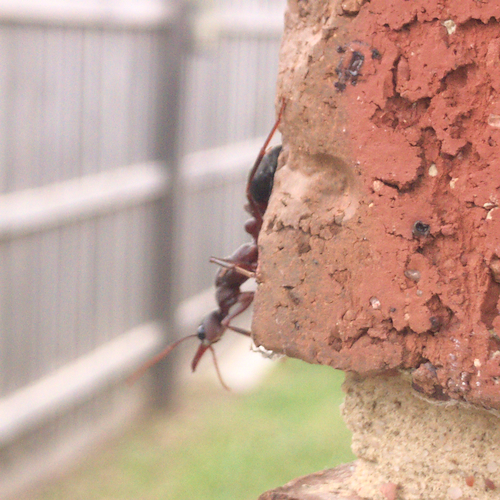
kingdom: Animalia
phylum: Arthropoda
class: Insecta
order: Hymenoptera
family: Formicidae
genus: Myrmecia
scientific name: Myrmecia forficata
